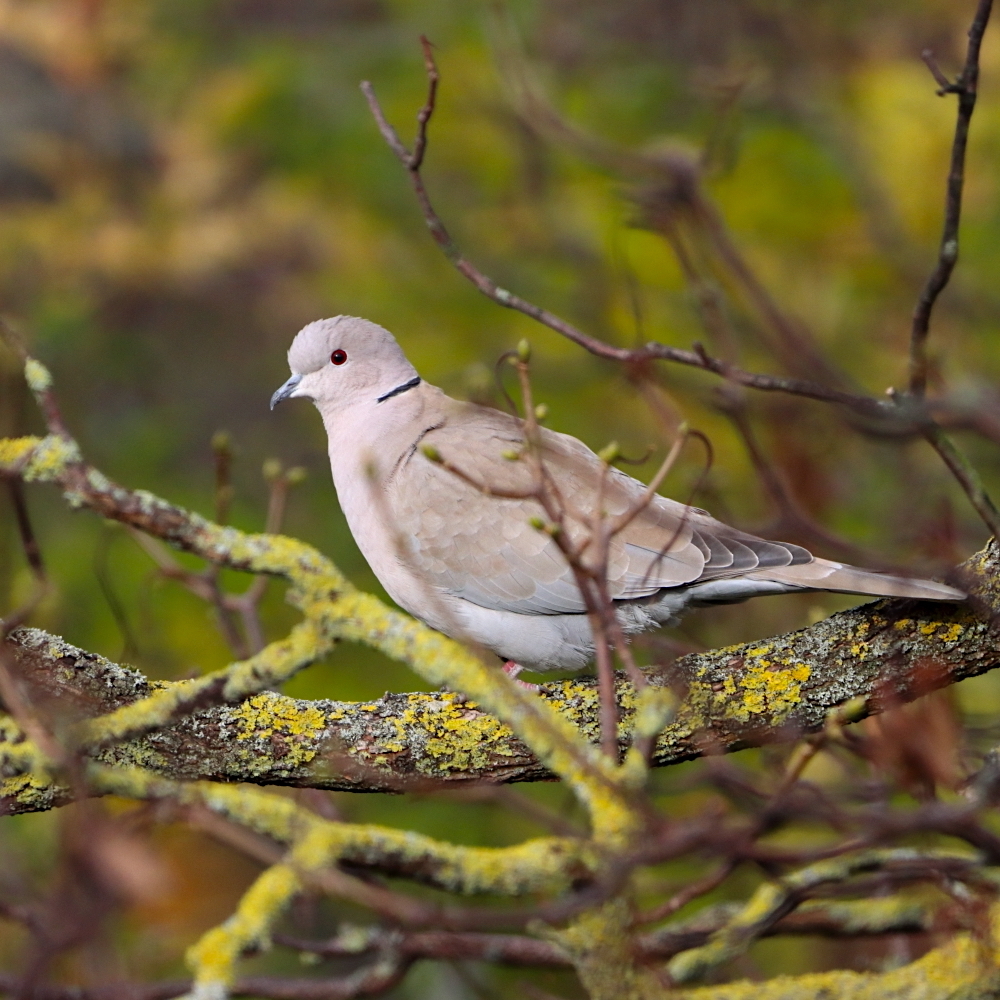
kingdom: Animalia
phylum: Chordata
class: Aves
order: Columbiformes
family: Columbidae
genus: Streptopelia
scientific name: Streptopelia decaocto
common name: Eurasian collared dove
